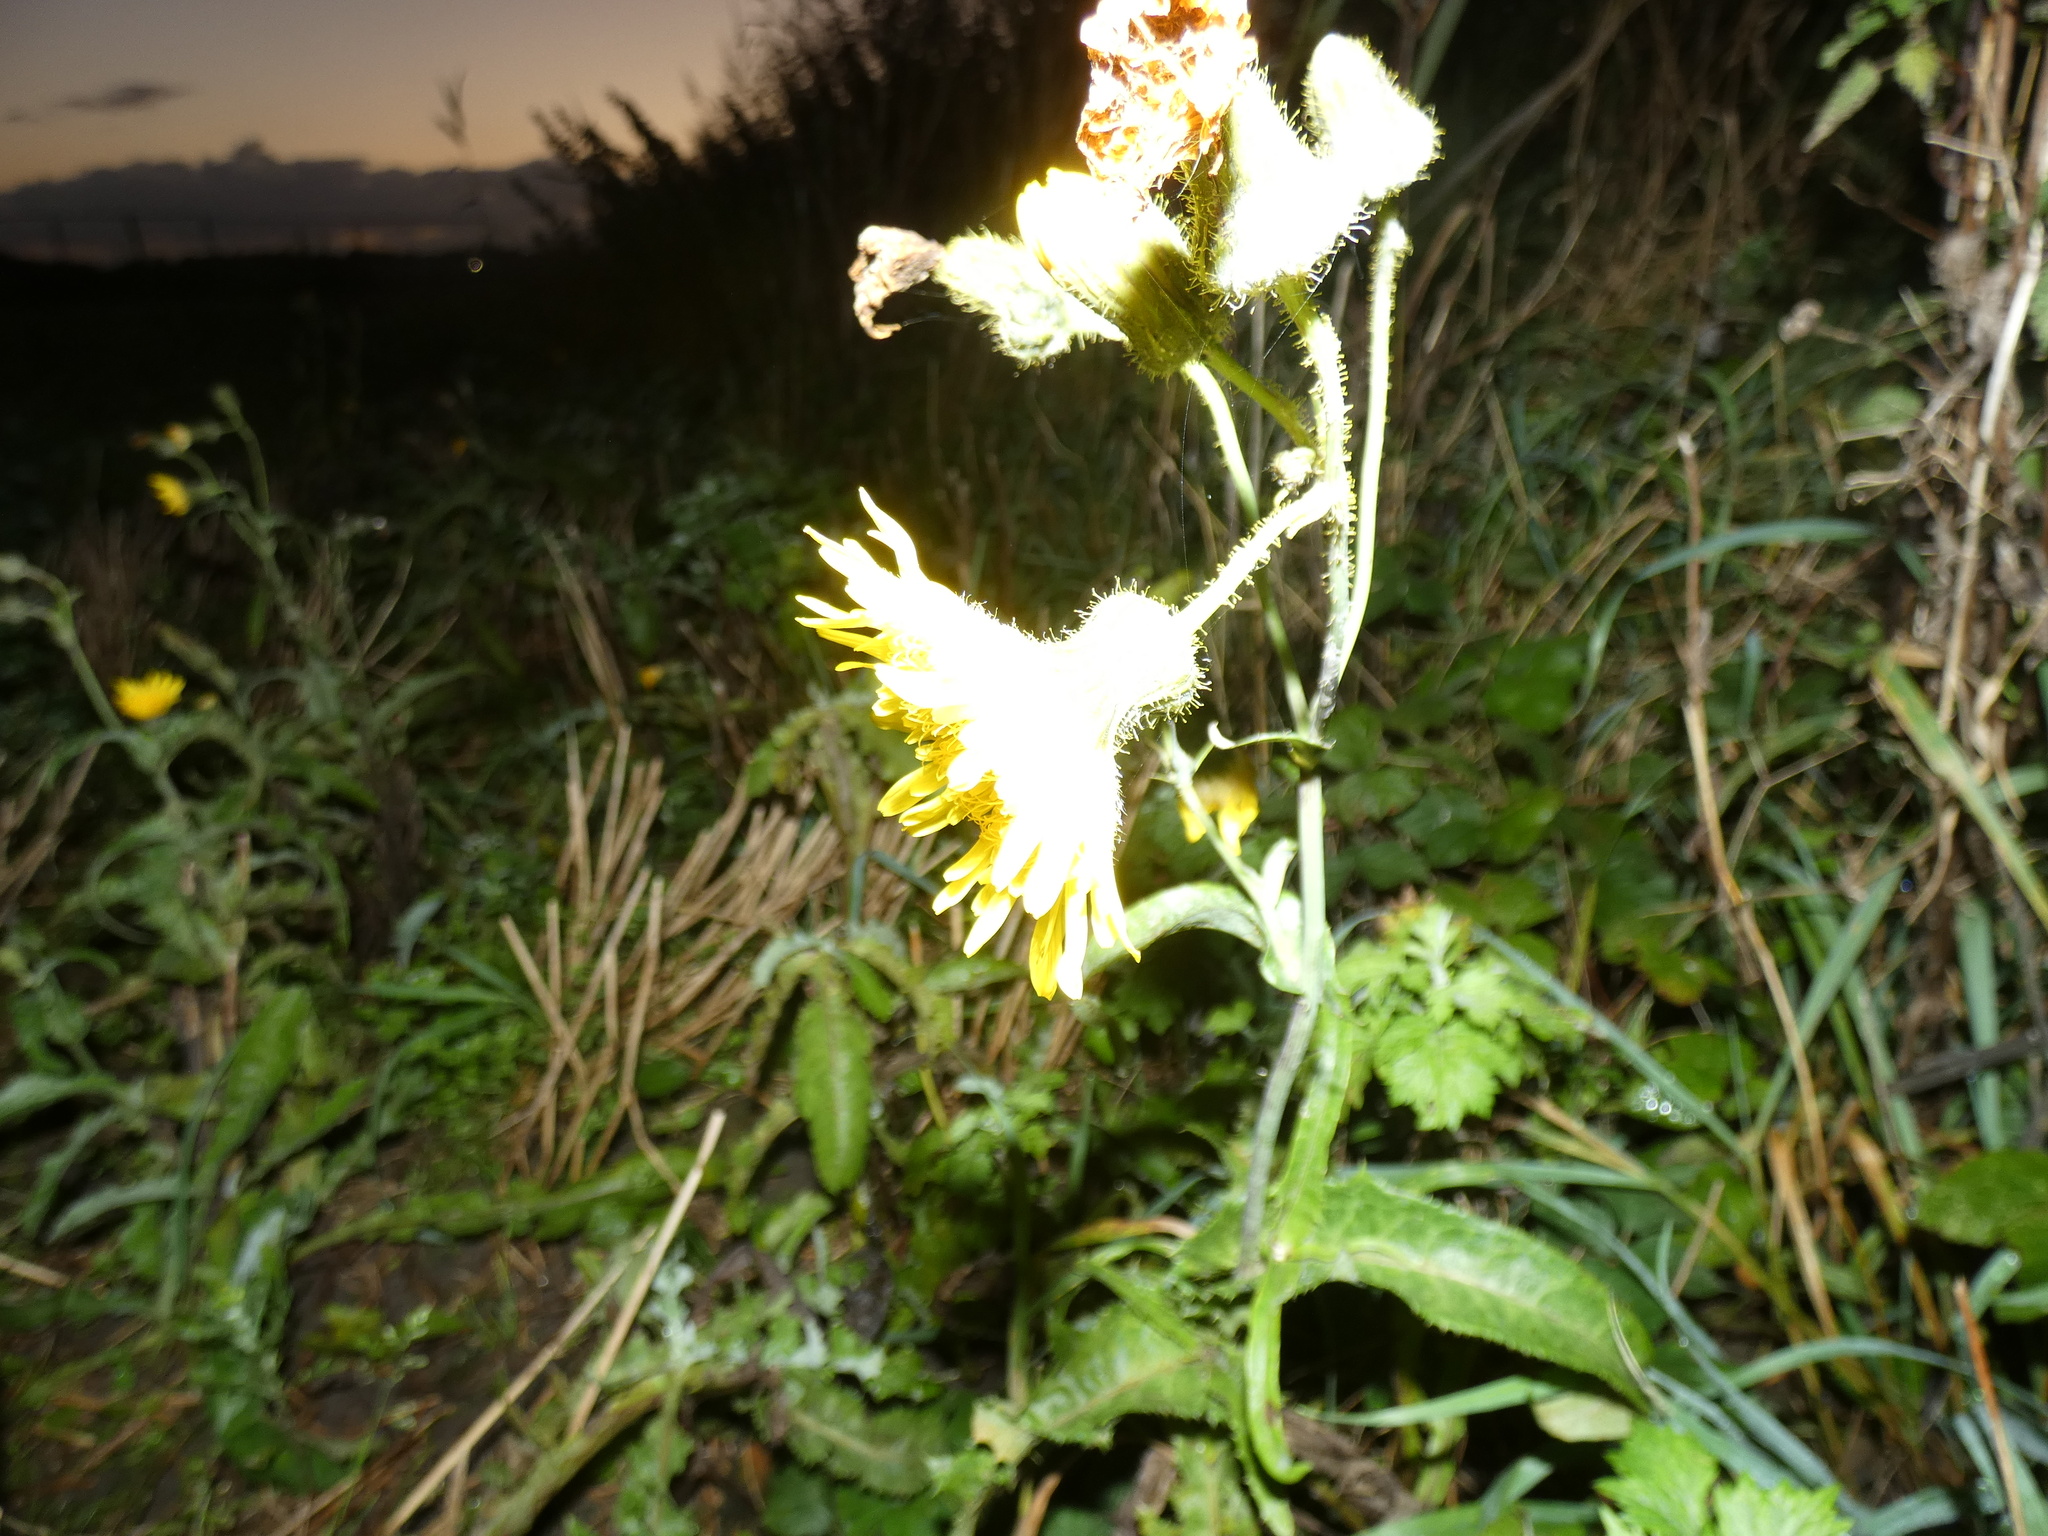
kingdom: Plantae
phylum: Tracheophyta
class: Magnoliopsida
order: Asterales
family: Asteraceae
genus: Sonchus
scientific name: Sonchus arvensis
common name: Perennial sow-thistle
